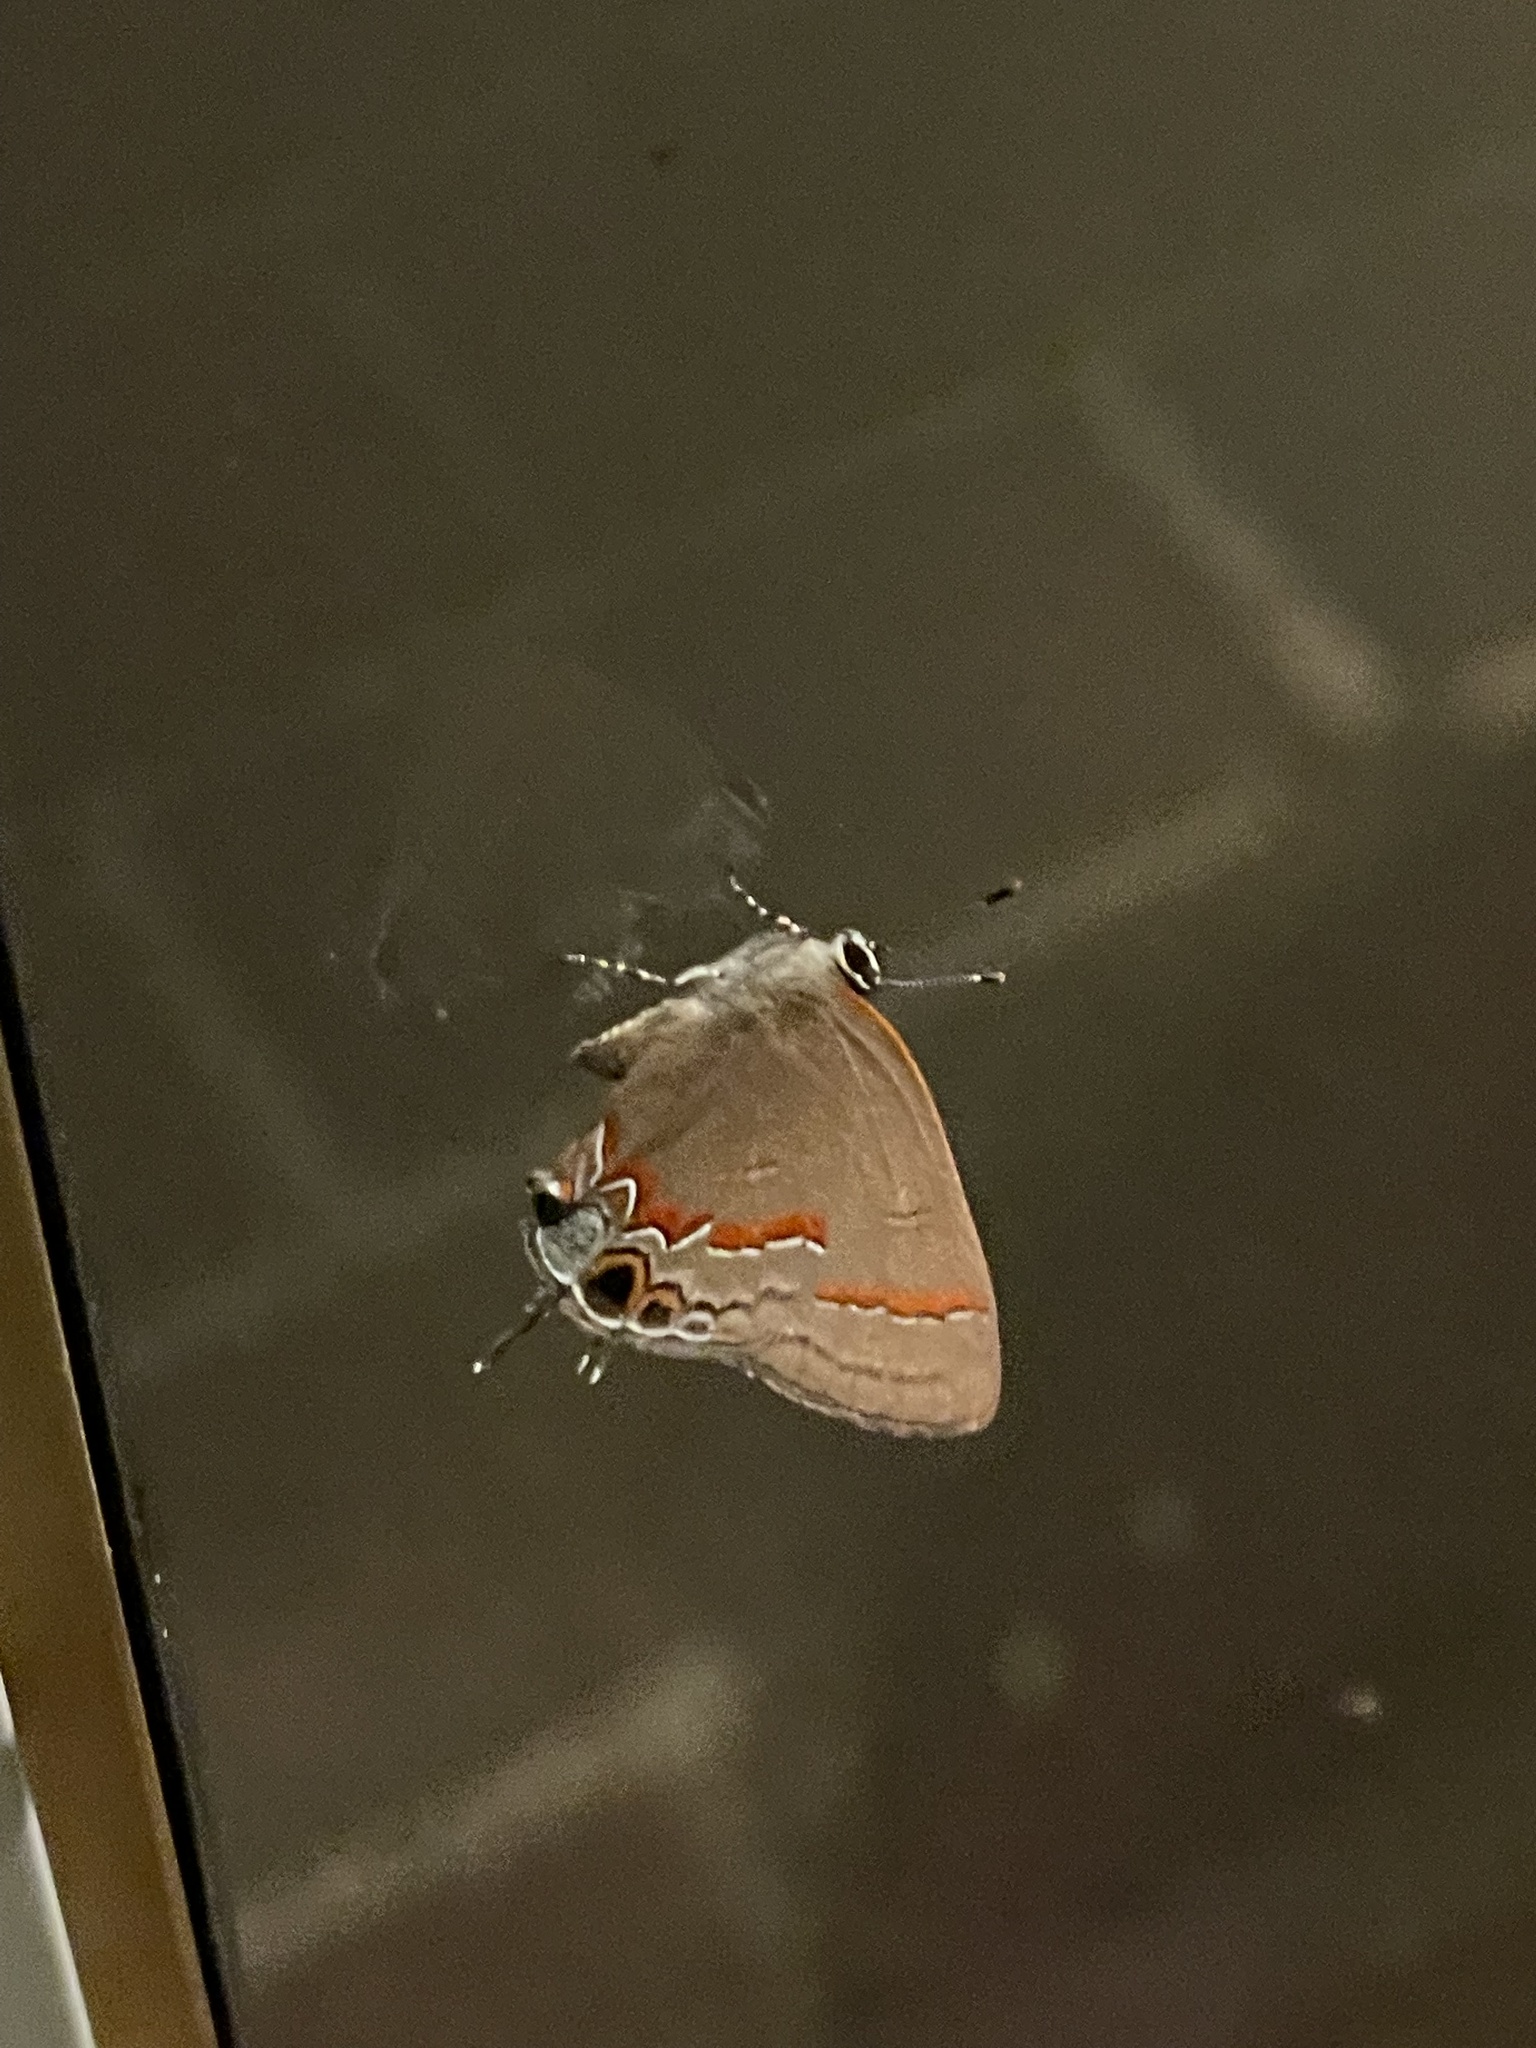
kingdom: Animalia
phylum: Arthropoda
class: Insecta
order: Lepidoptera
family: Lycaenidae
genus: Calycopis
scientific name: Calycopis cecrops
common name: Red-banded hairstreak
